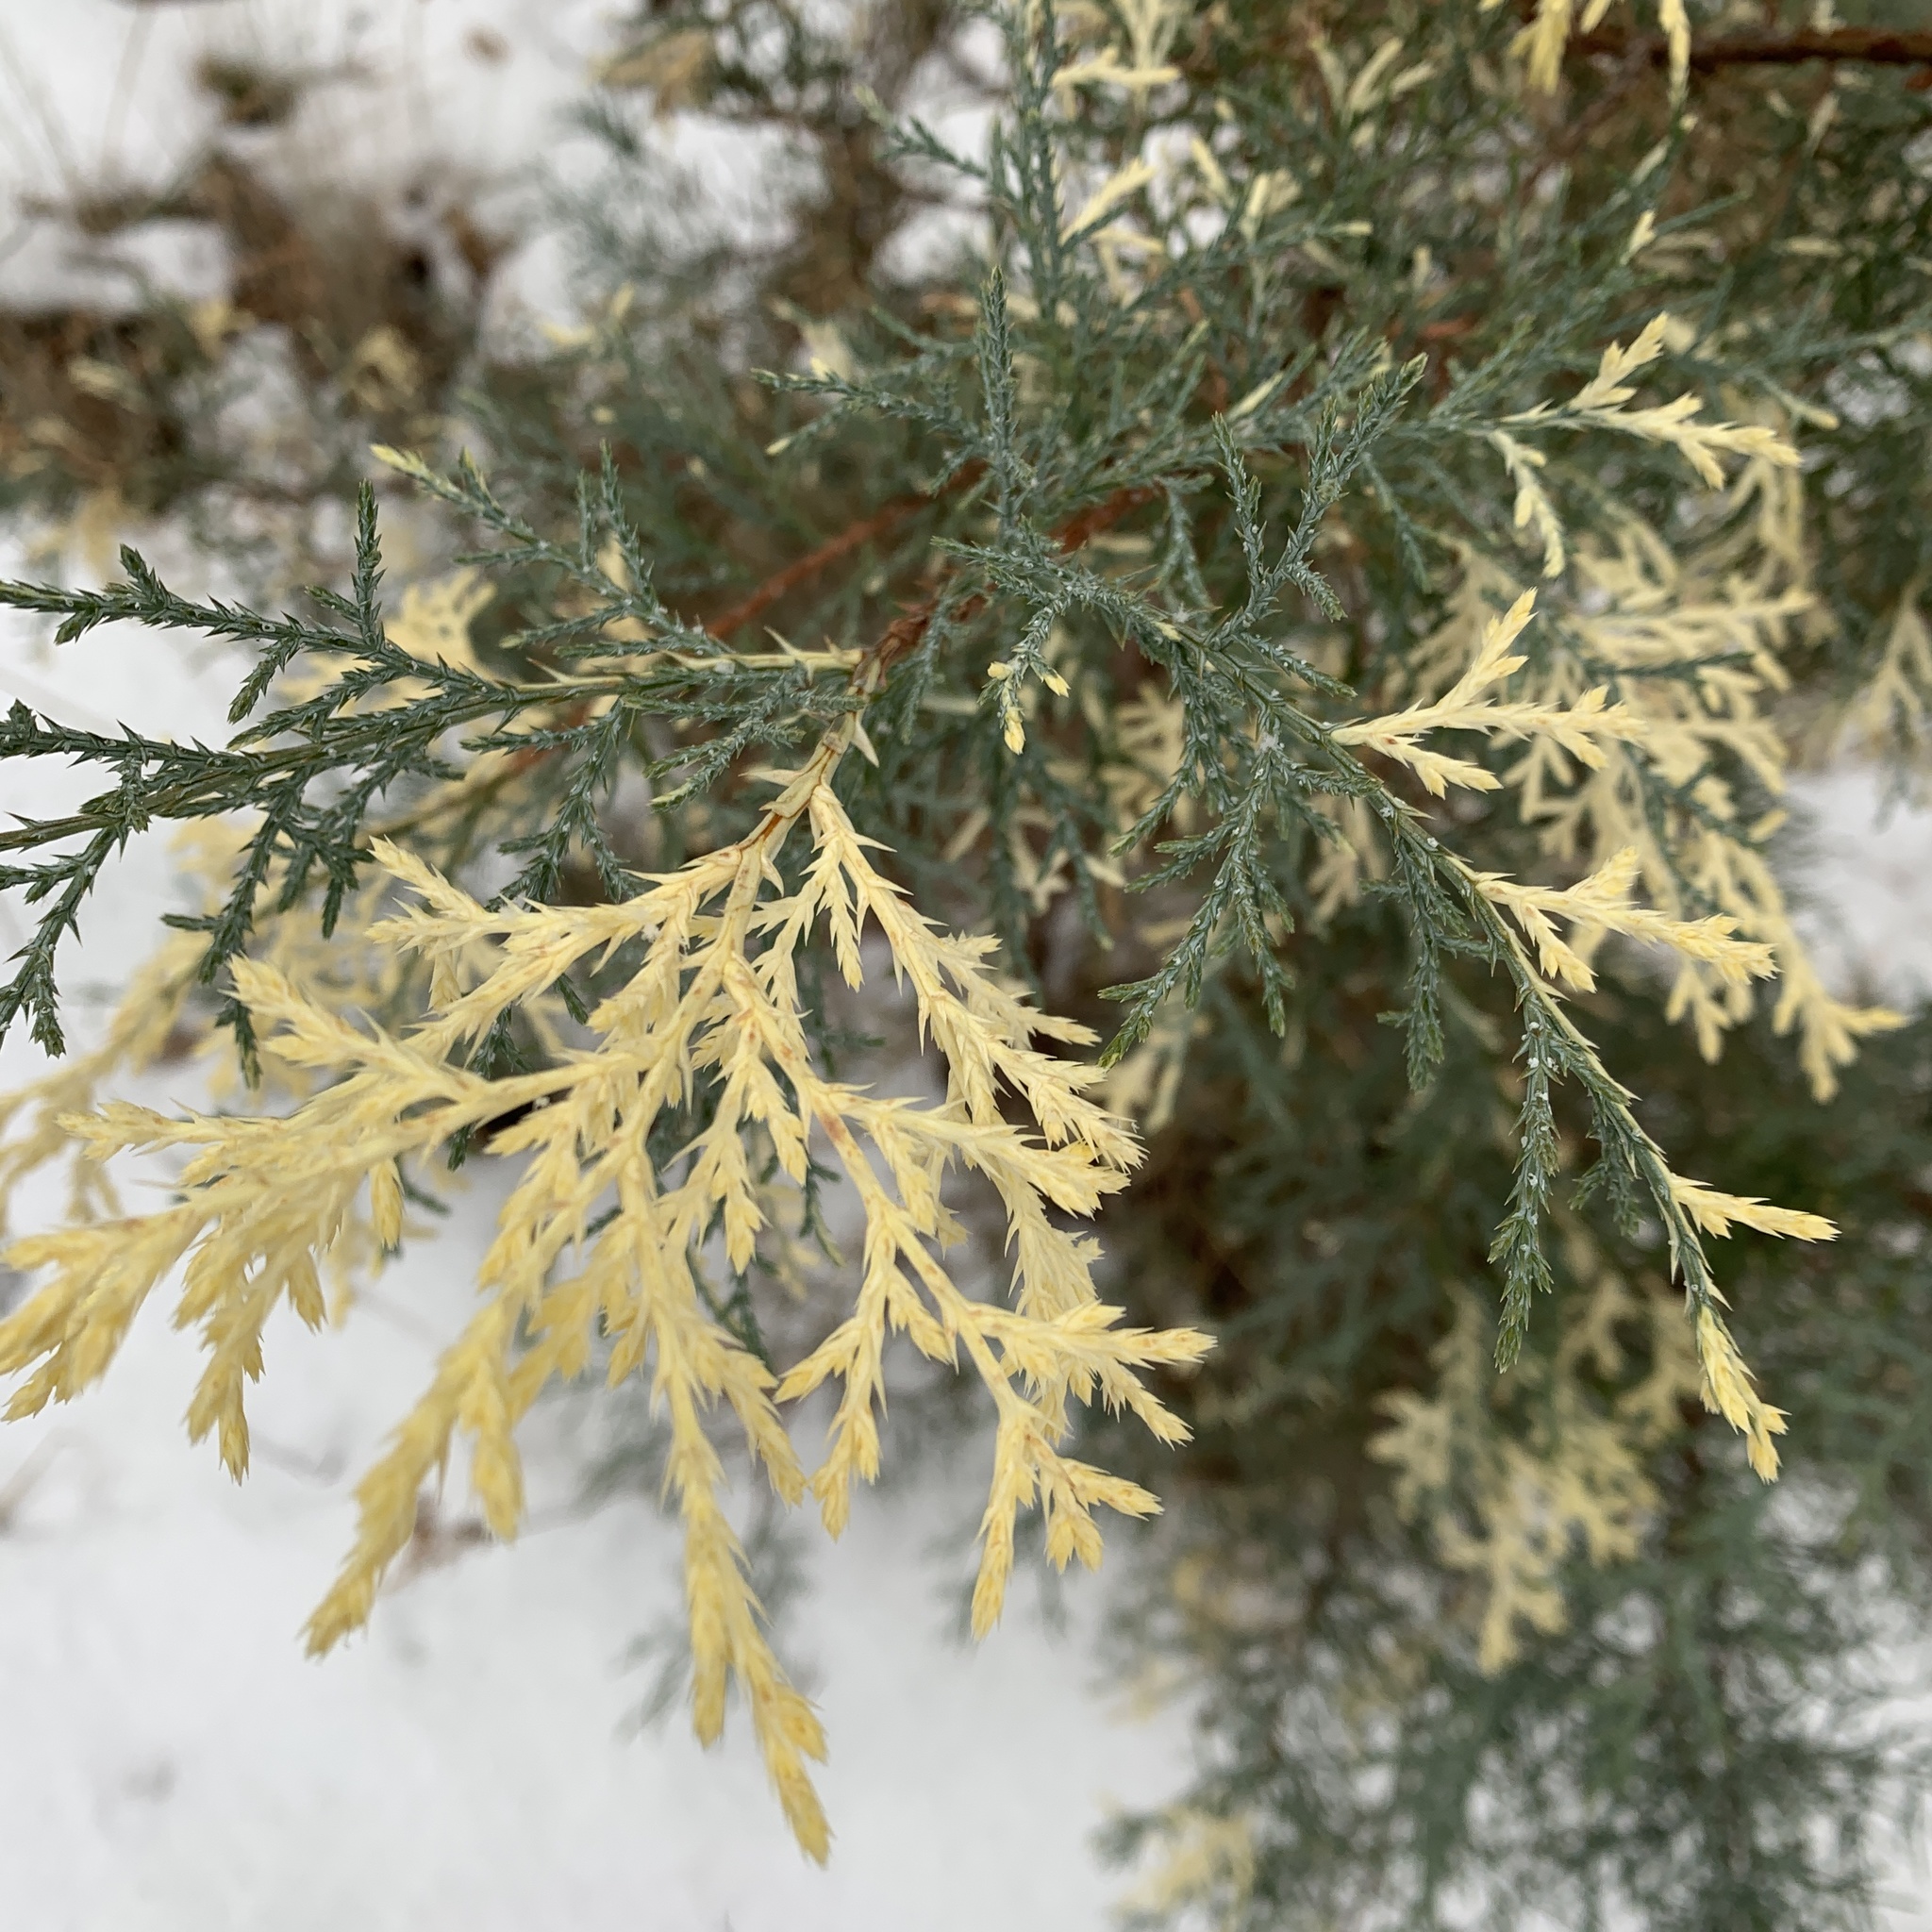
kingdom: Plantae
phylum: Tracheophyta
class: Pinopsida
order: Pinales
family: Cupressaceae
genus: Juniperus
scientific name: Juniperus deppeana
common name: Alligator juniper
